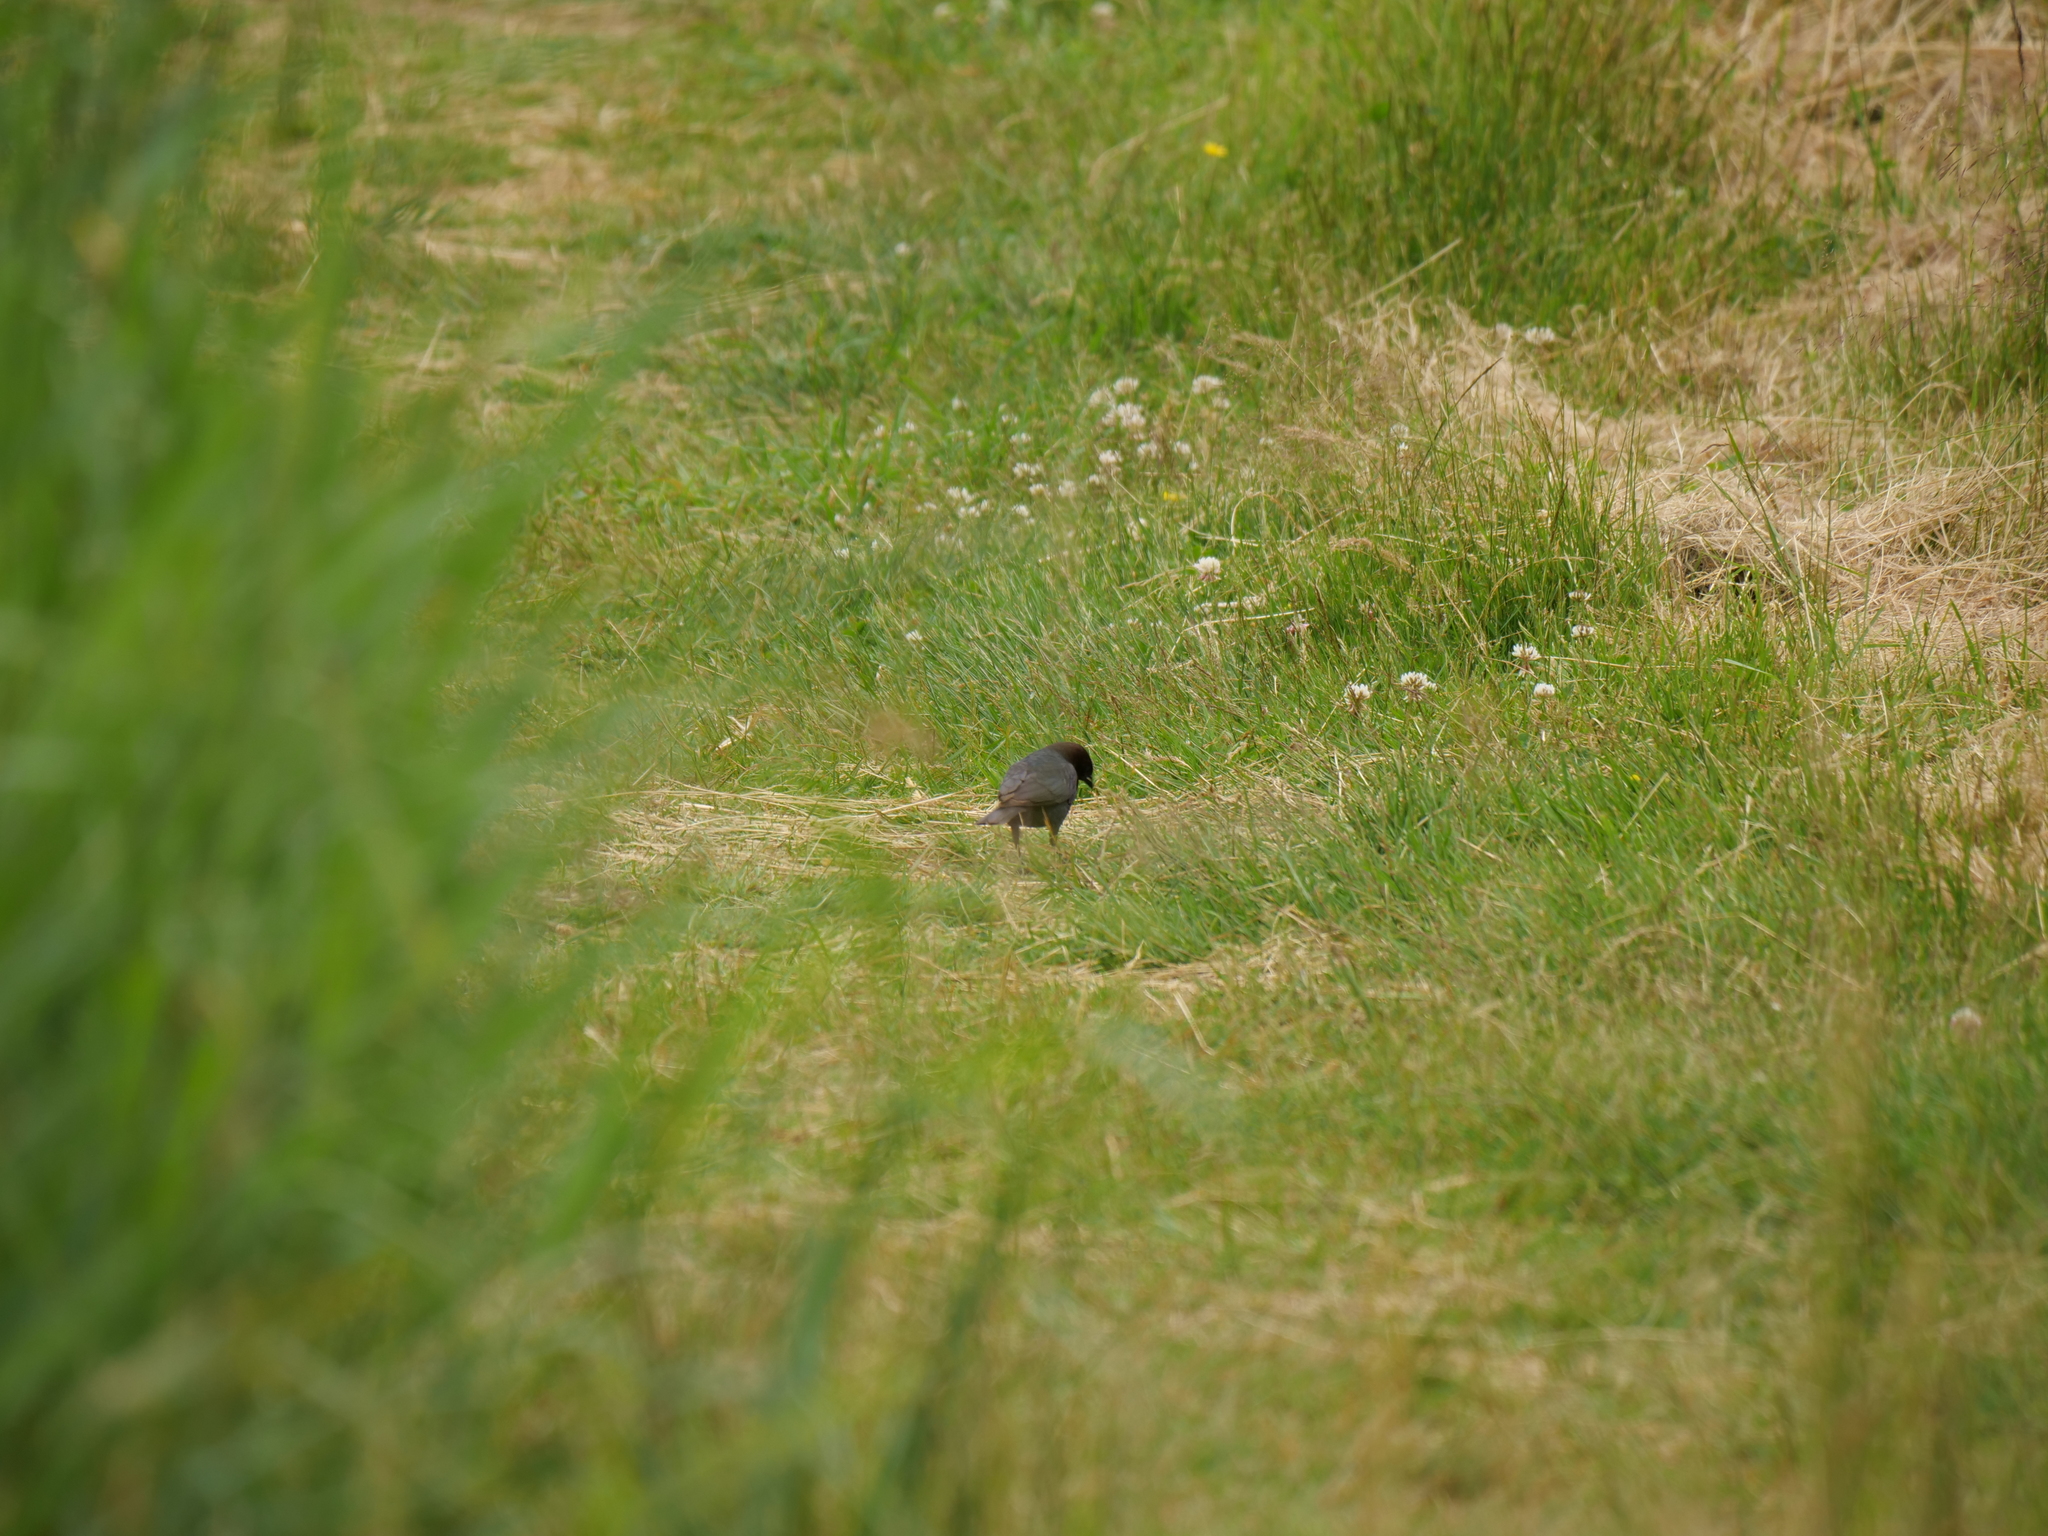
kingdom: Animalia
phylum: Chordata
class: Aves
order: Passeriformes
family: Icteridae
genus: Molothrus
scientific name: Molothrus ater
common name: Brown-headed cowbird
